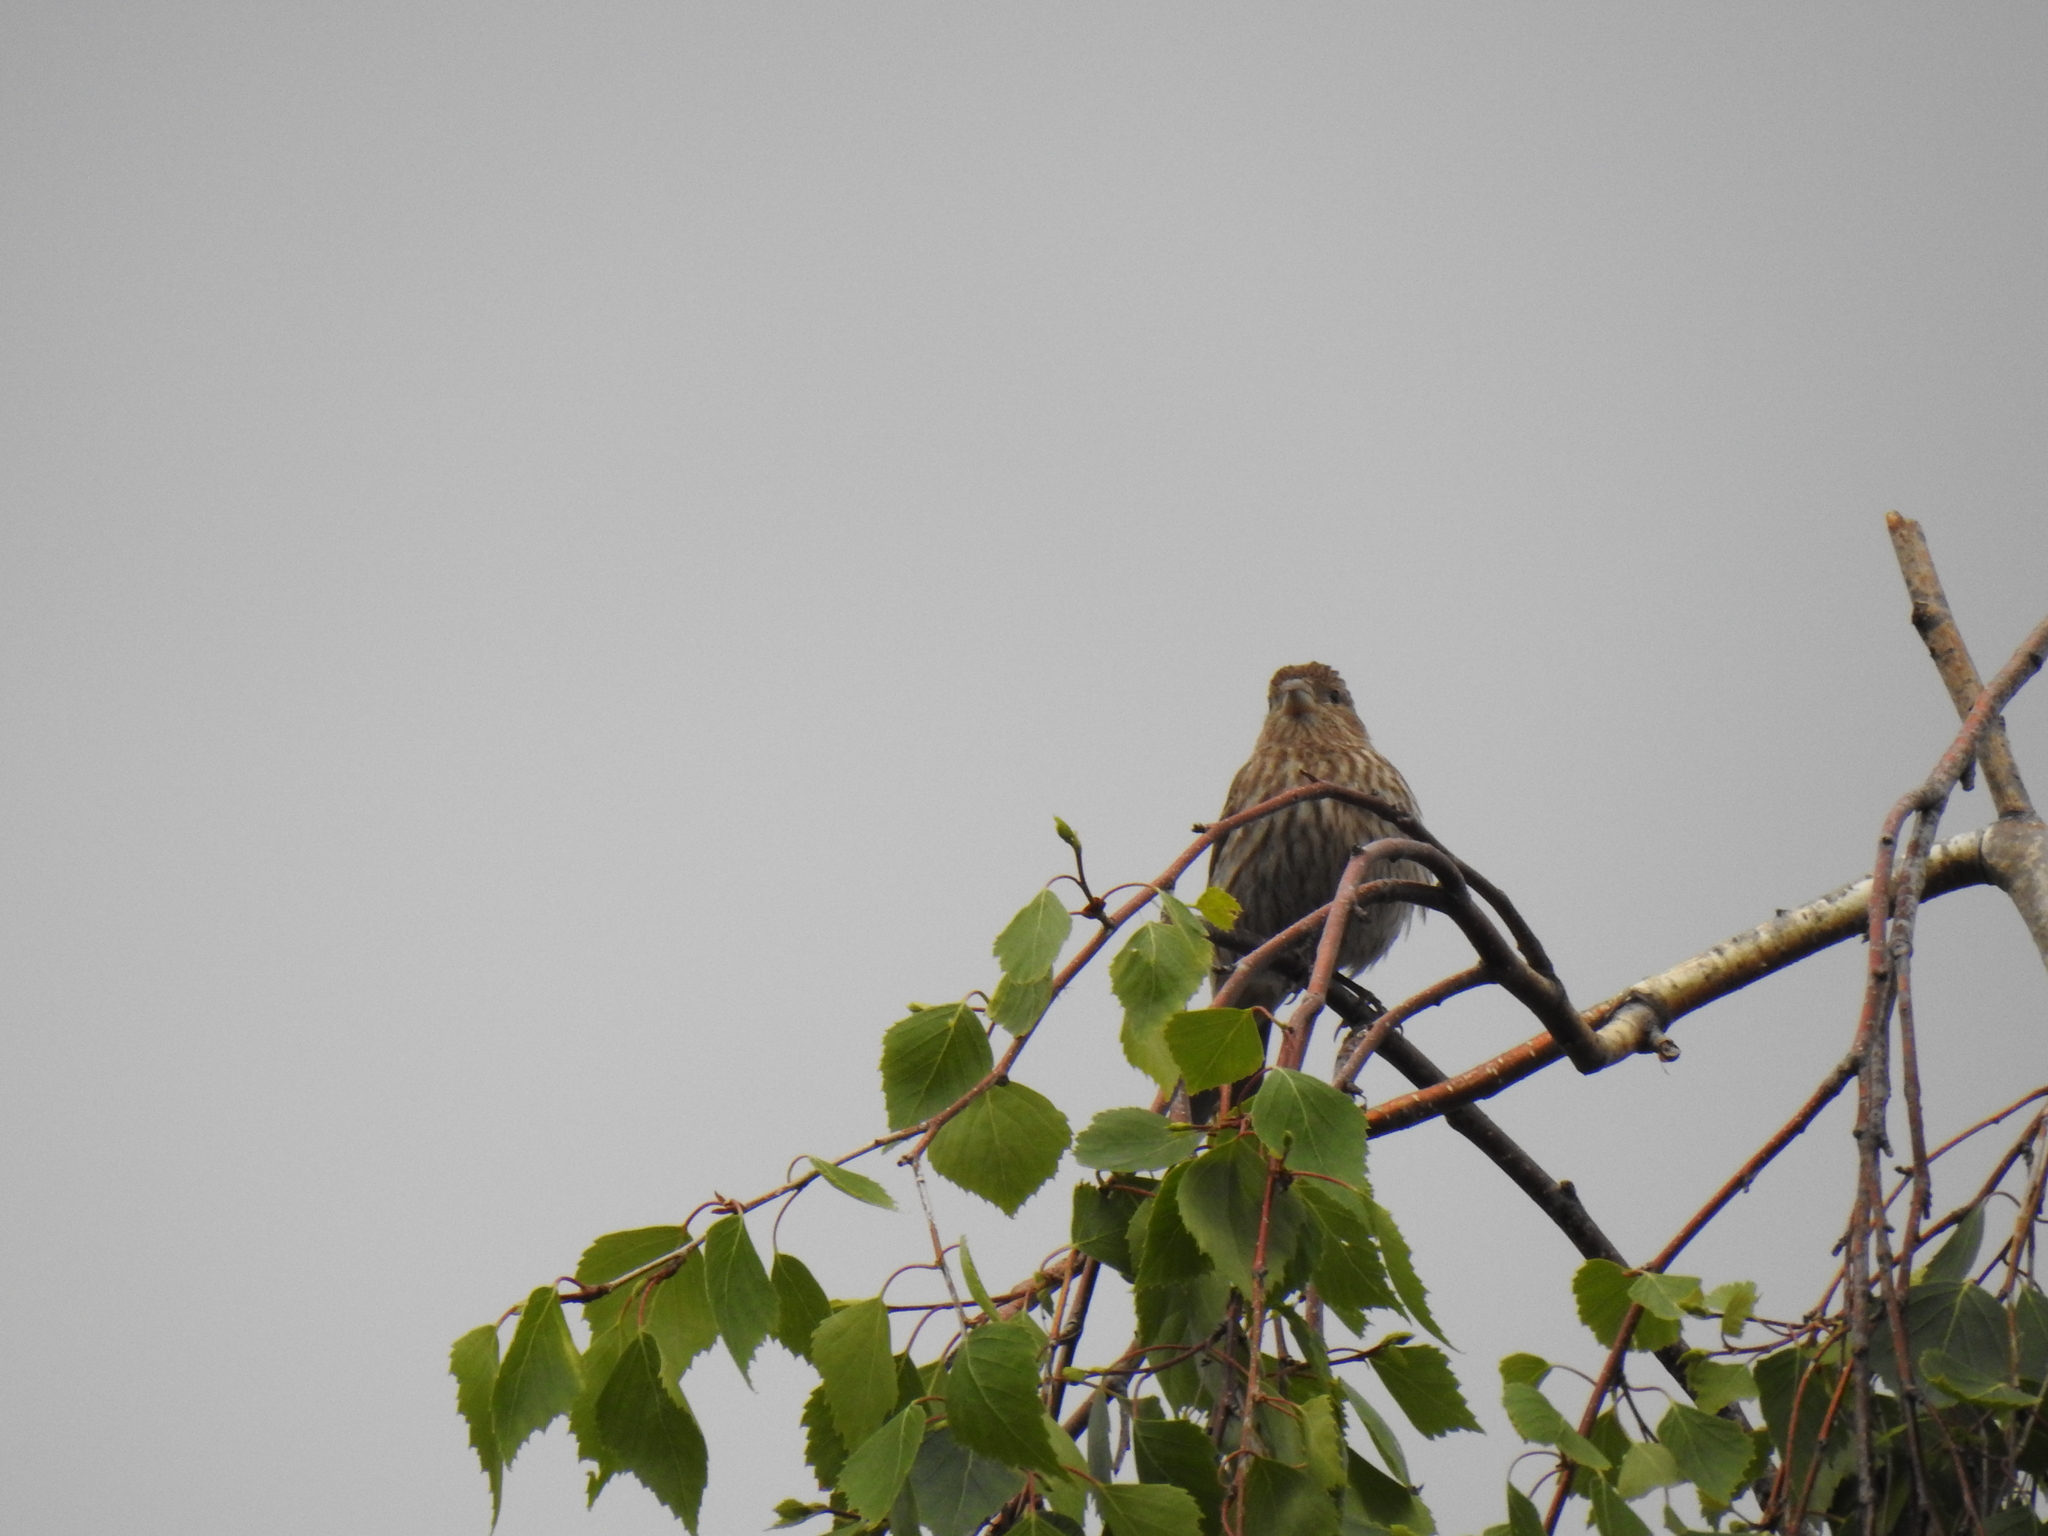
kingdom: Animalia
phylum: Chordata
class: Aves
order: Passeriformes
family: Fringillidae
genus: Haemorhous
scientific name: Haemorhous mexicanus
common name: House finch
